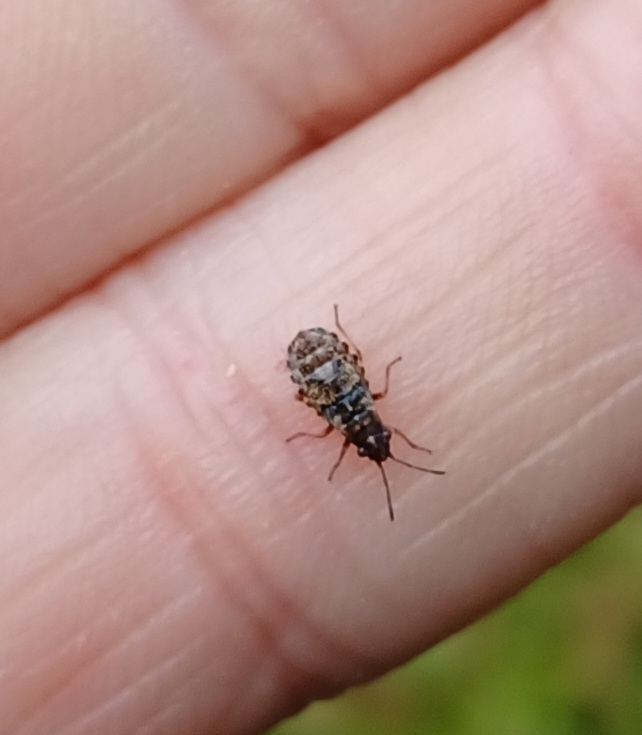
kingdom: Animalia
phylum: Arthropoda
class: Insecta
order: Hemiptera
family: Lygaeidae
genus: Nithecus
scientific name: Nithecus jacobaeae
